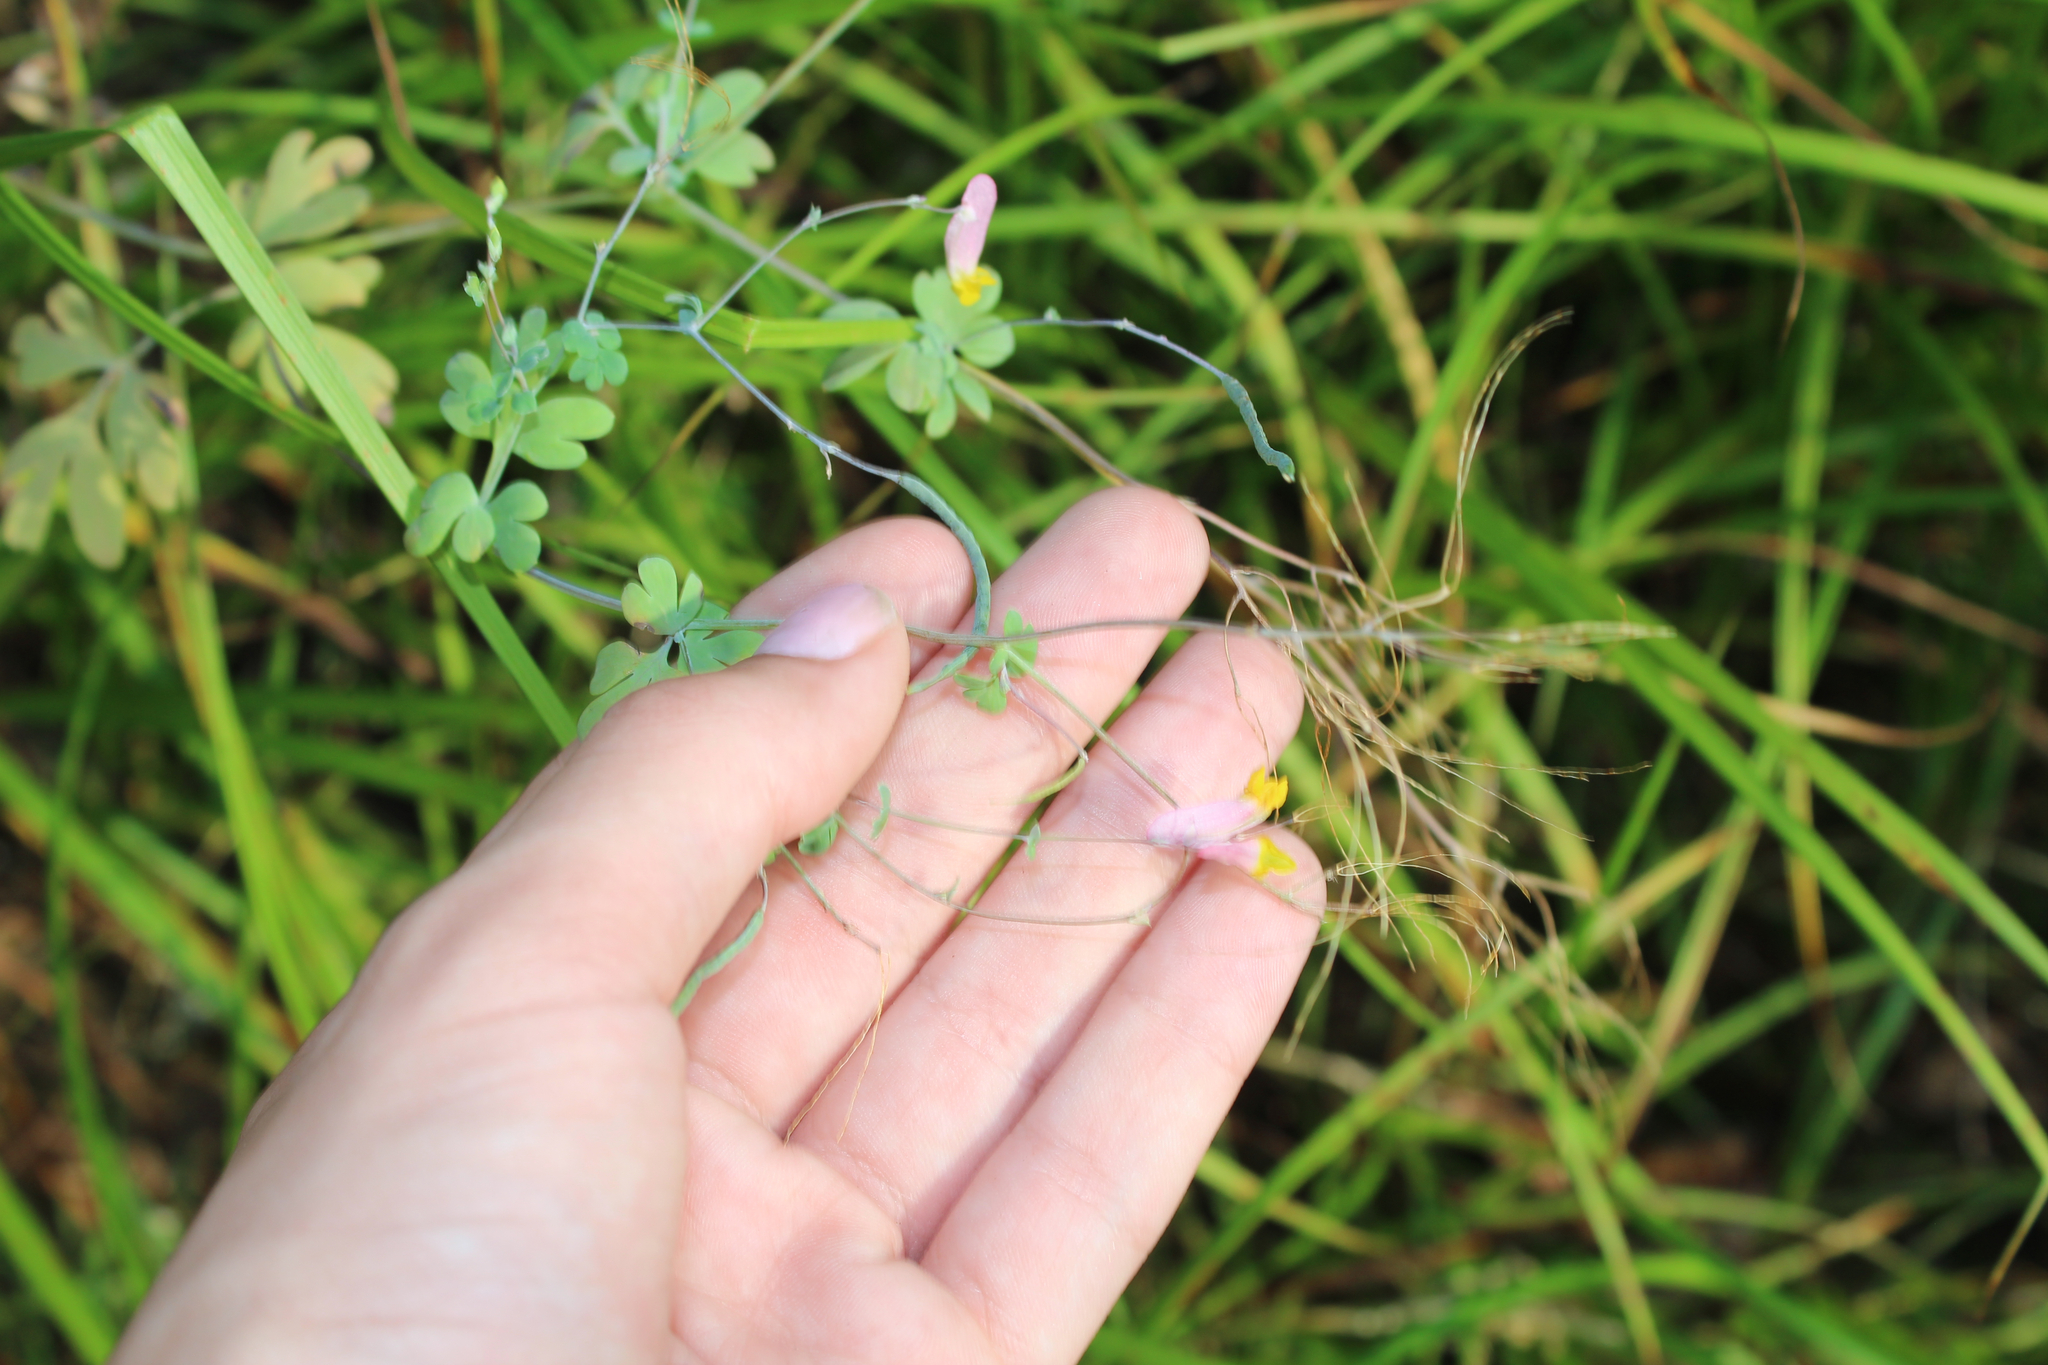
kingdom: Plantae
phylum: Tracheophyta
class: Magnoliopsida
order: Ranunculales
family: Papaveraceae
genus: Capnoides
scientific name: Capnoides sempervirens
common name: Rock harlequin
